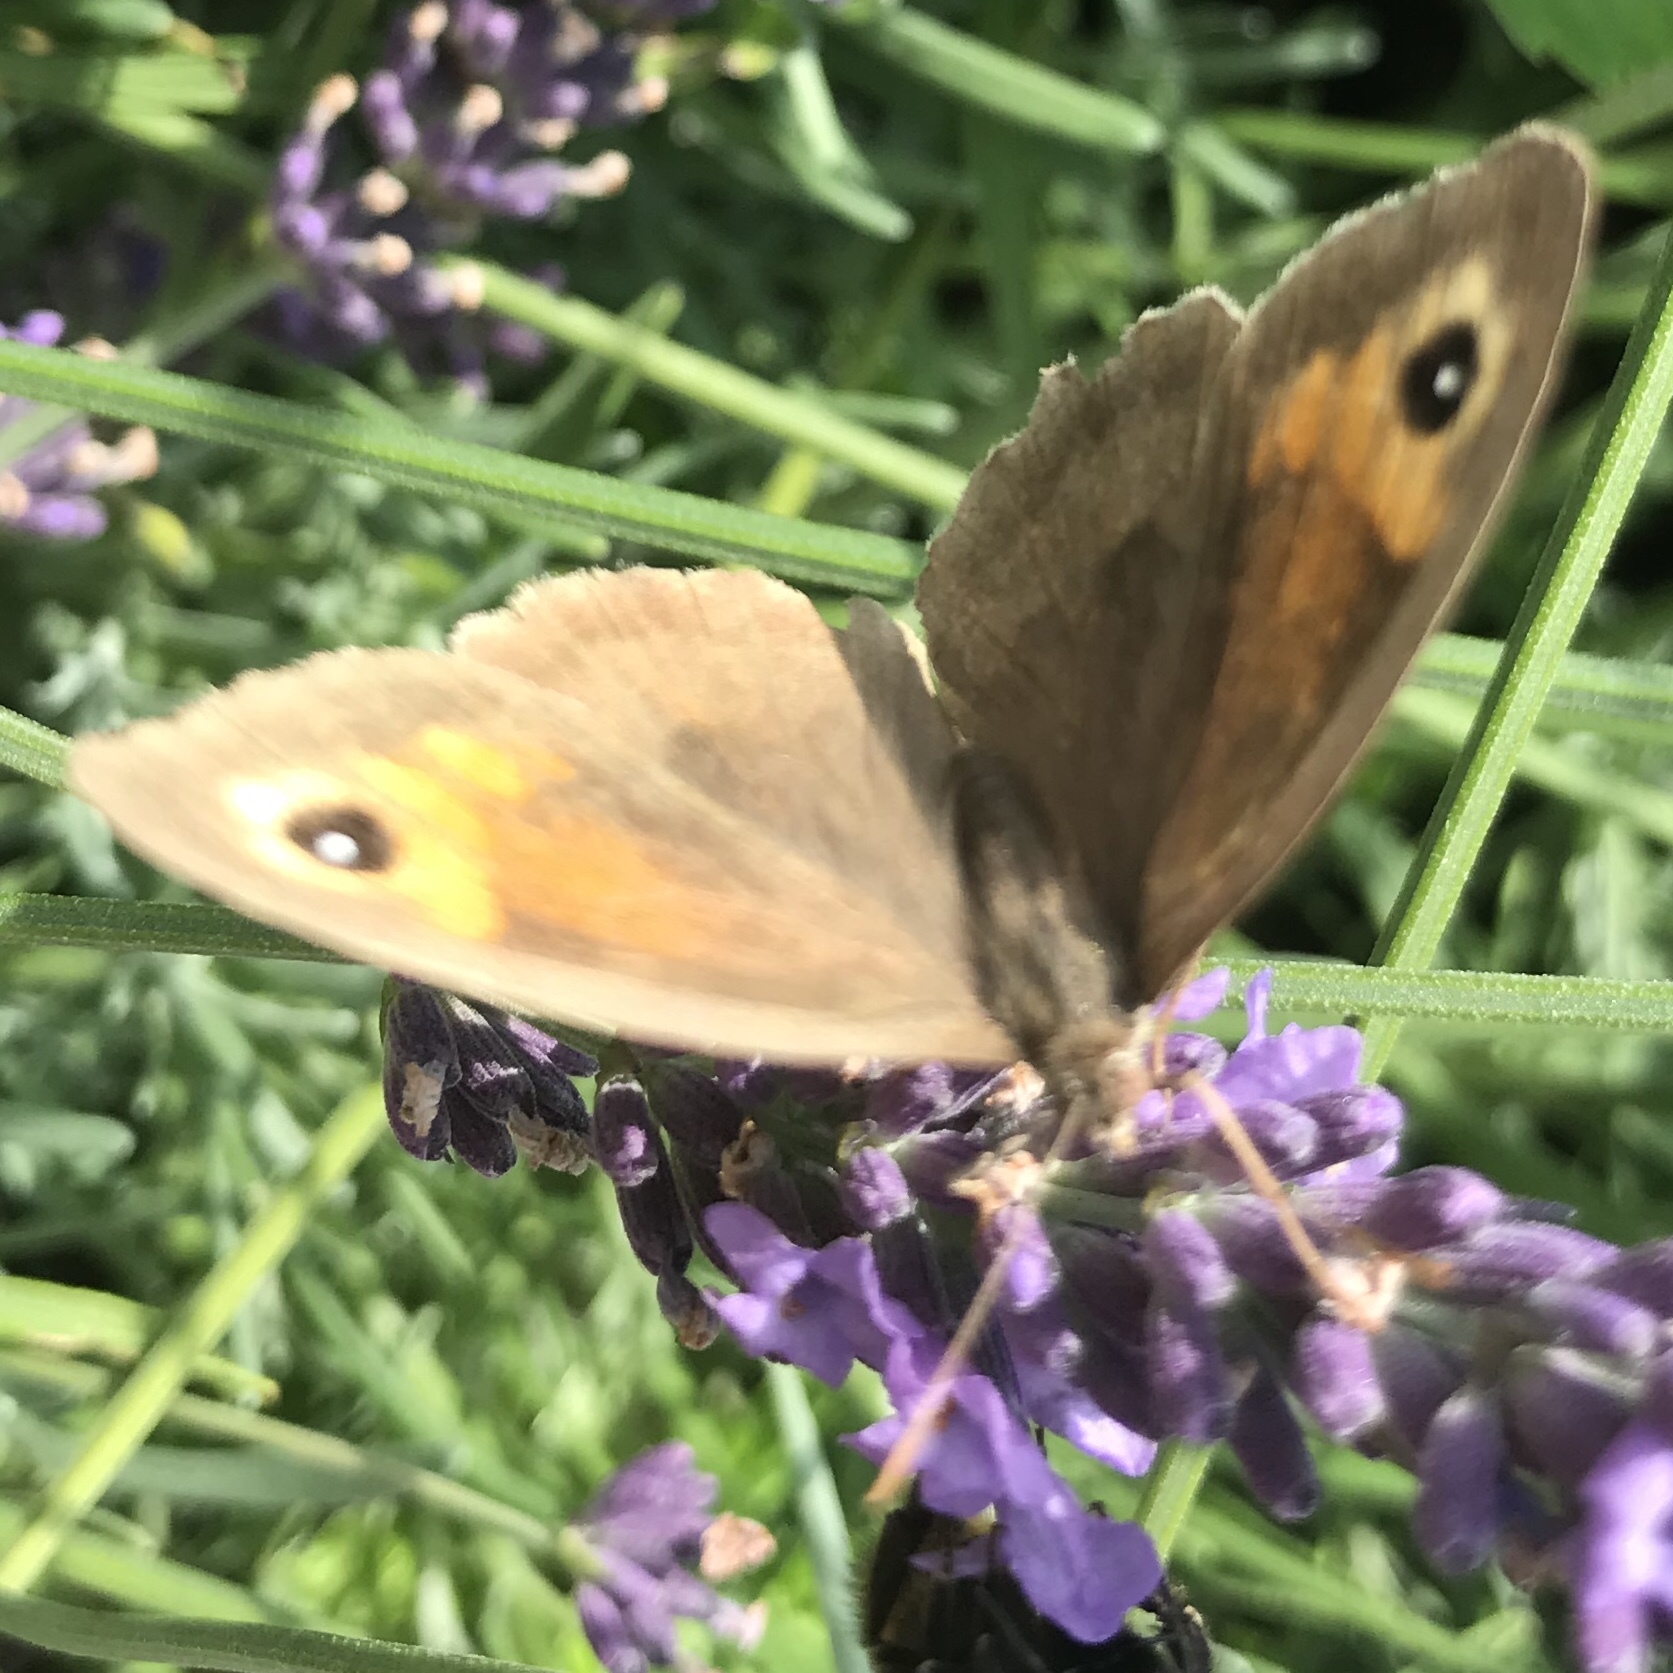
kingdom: Animalia
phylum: Arthropoda
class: Insecta
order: Lepidoptera
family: Nymphalidae
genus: Maniola
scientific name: Maniola jurtina
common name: Meadow brown
